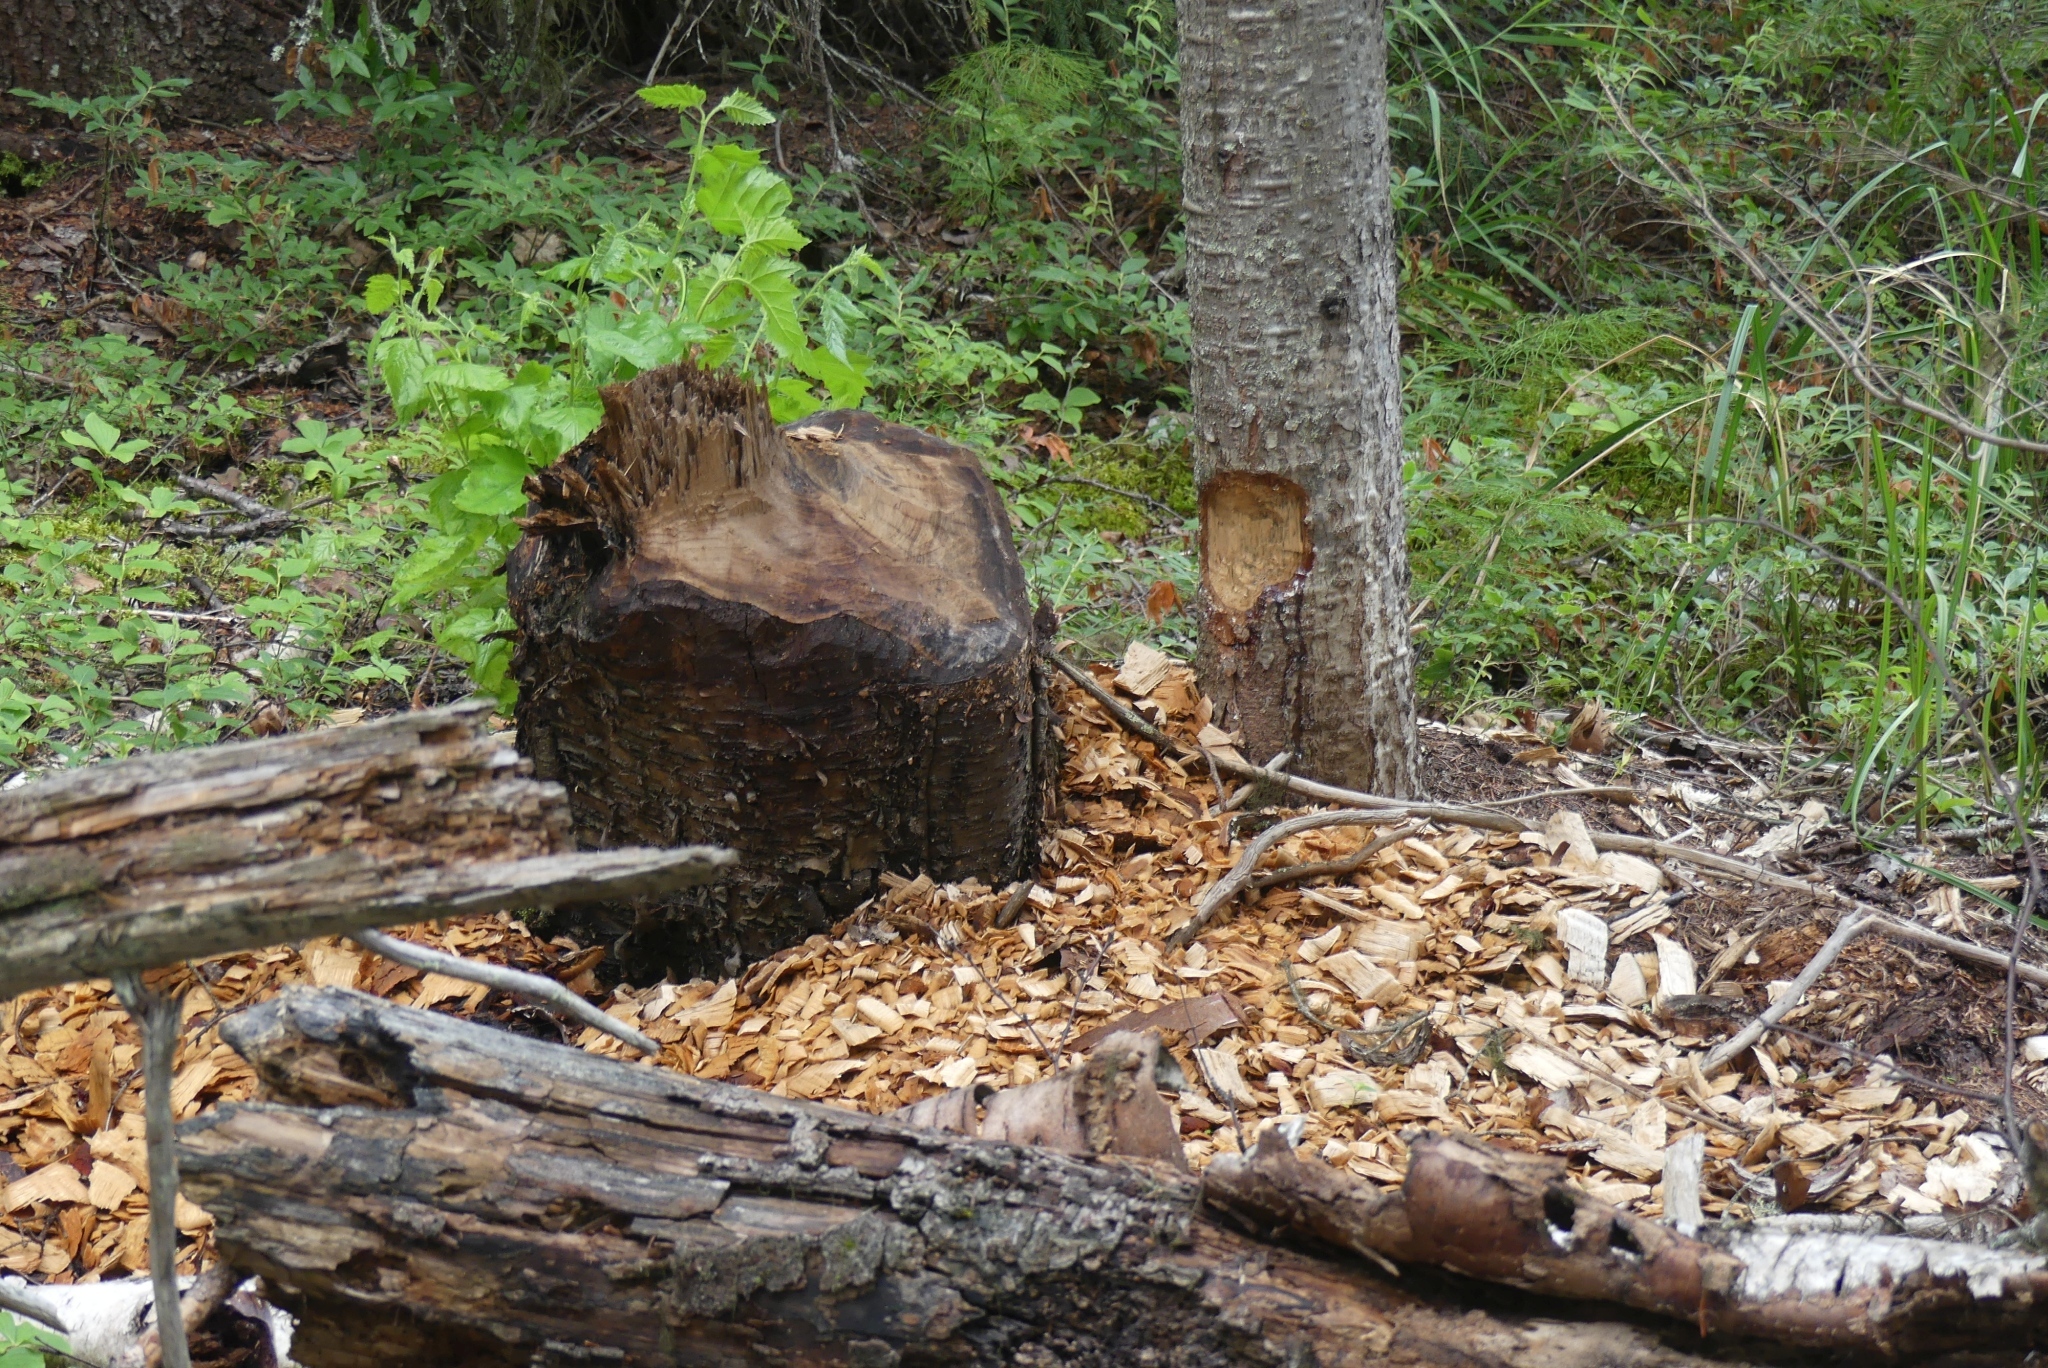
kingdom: Animalia
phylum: Chordata
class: Mammalia
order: Rodentia
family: Castoridae
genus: Castor
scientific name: Castor canadensis
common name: American beaver
